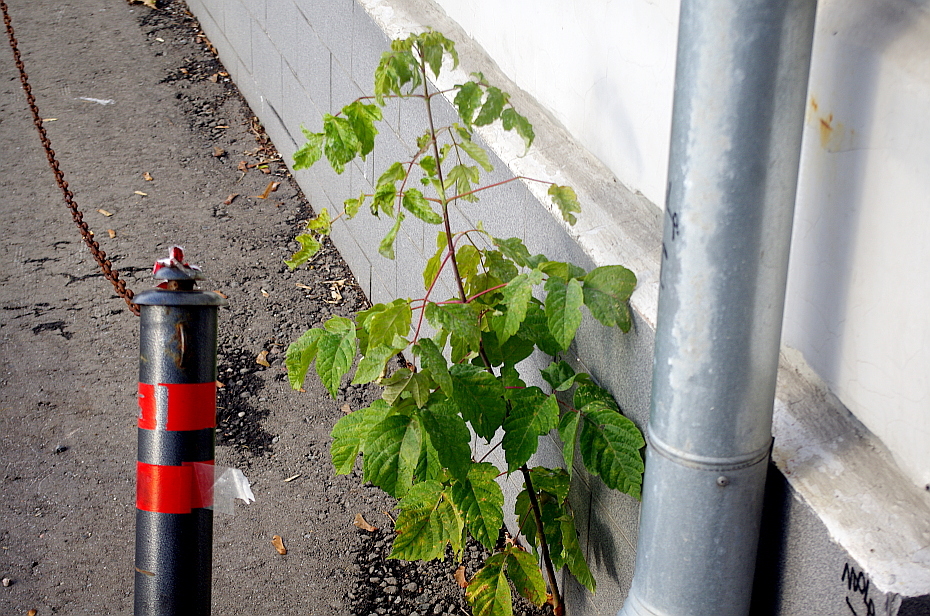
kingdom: Plantae
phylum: Tracheophyta
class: Magnoliopsida
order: Sapindales
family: Sapindaceae
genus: Acer
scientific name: Acer negundo
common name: Ashleaf maple
